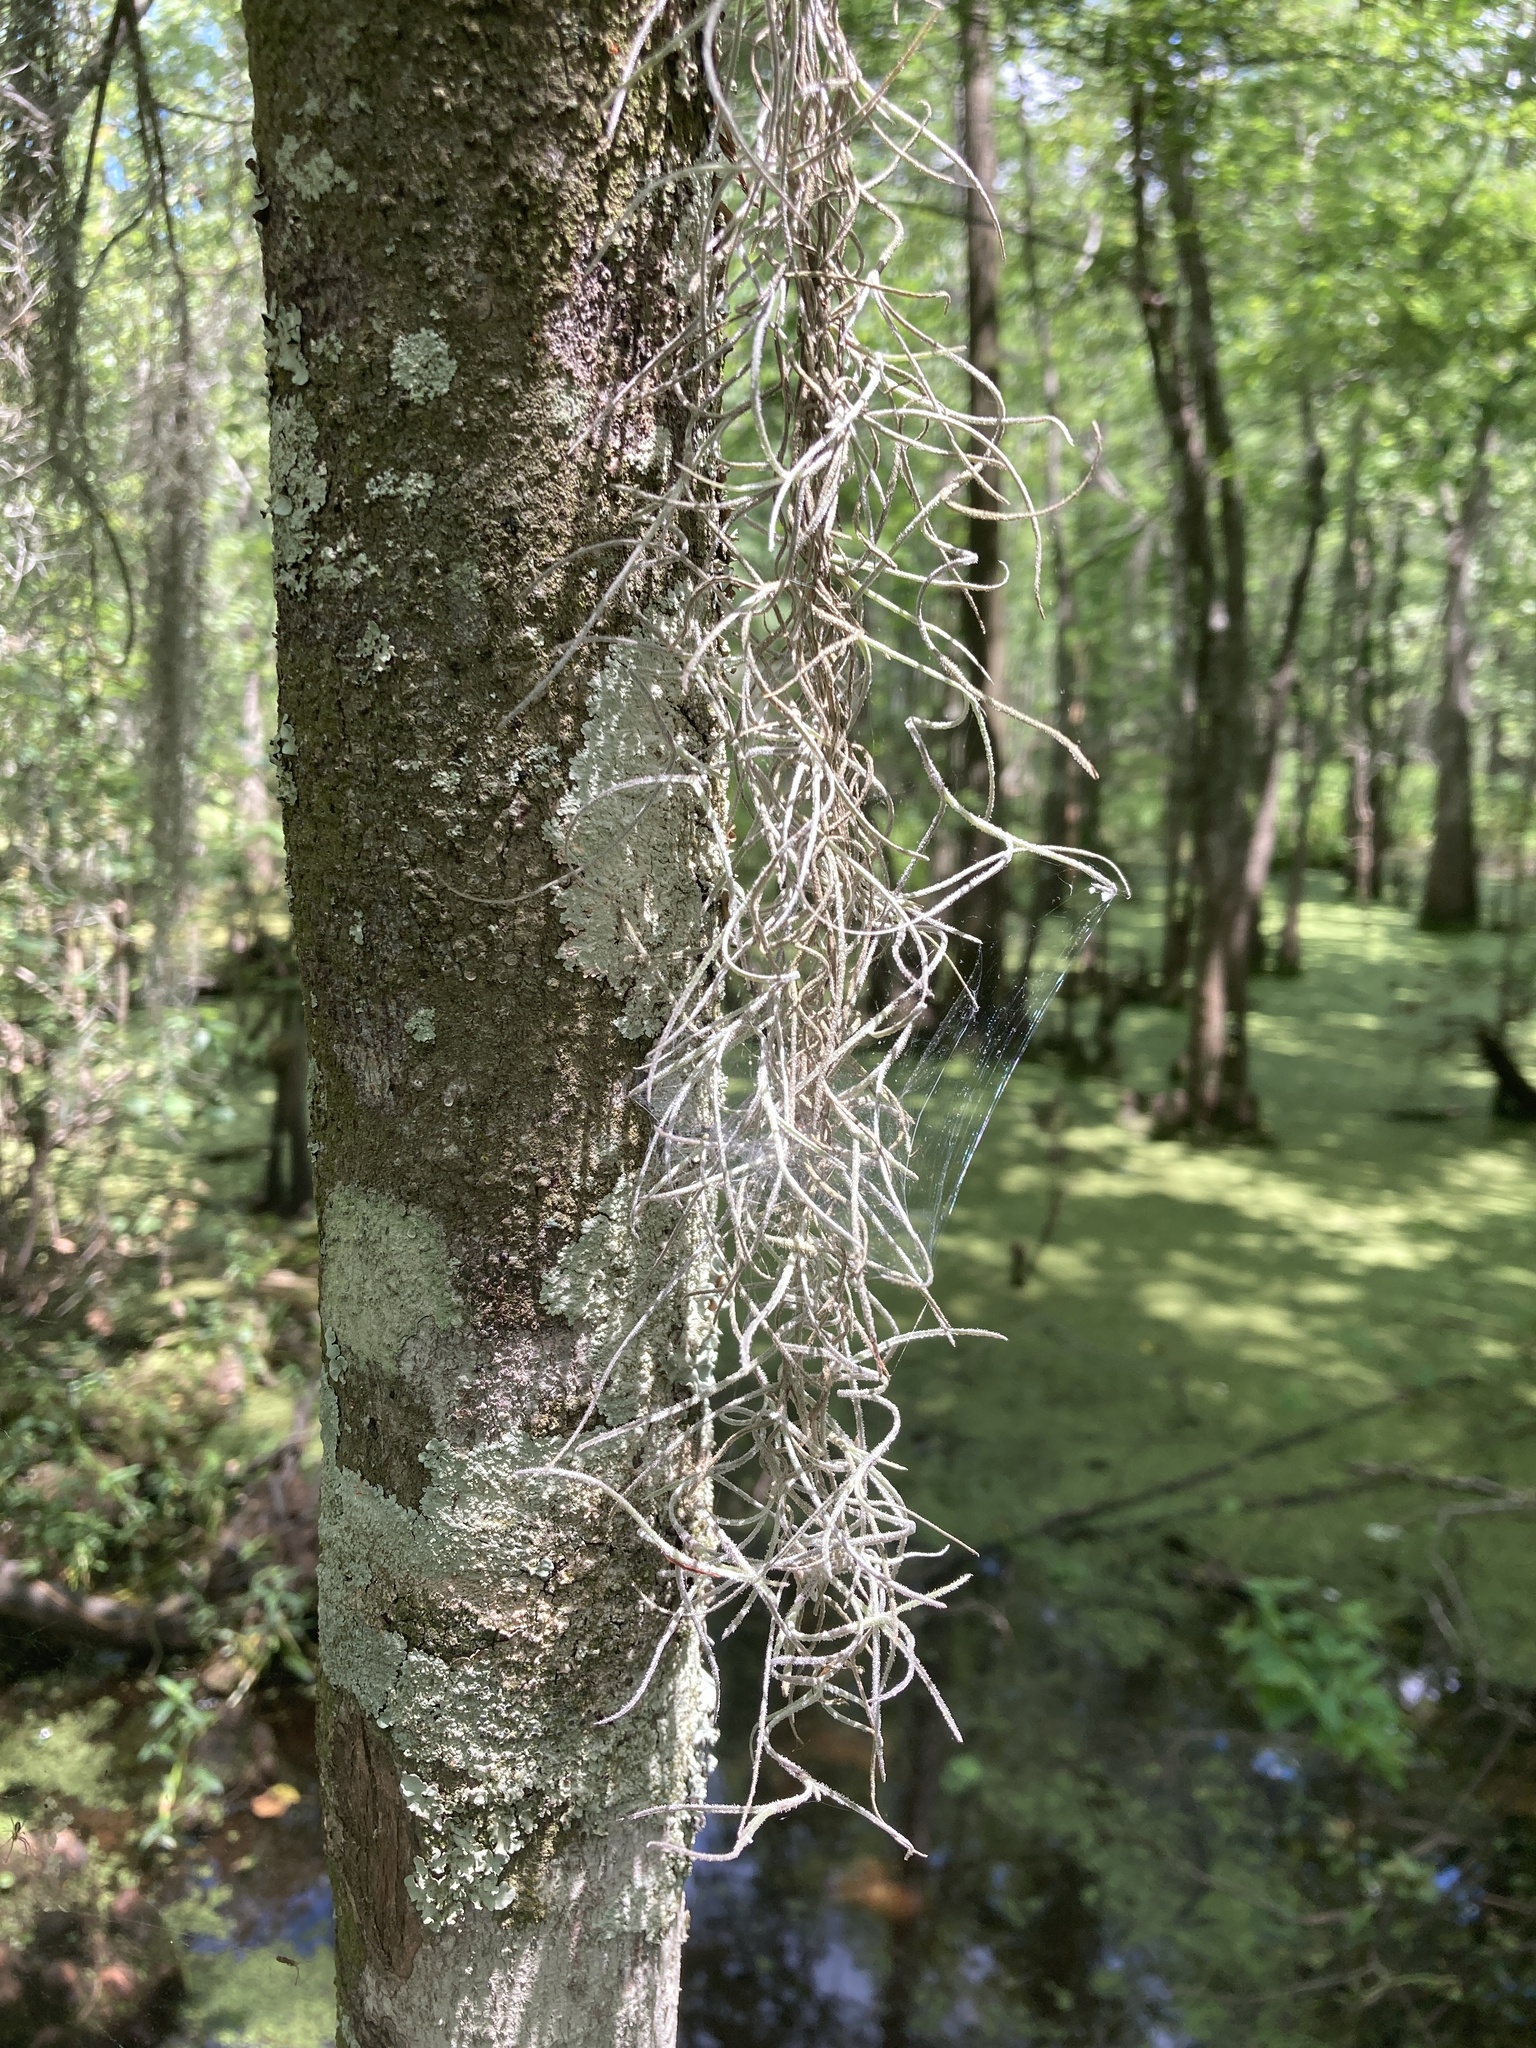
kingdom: Plantae
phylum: Tracheophyta
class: Liliopsida
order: Poales
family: Bromeliaceae
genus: Tillandsia
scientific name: Tillandsia usneoides
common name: Spanish moss
